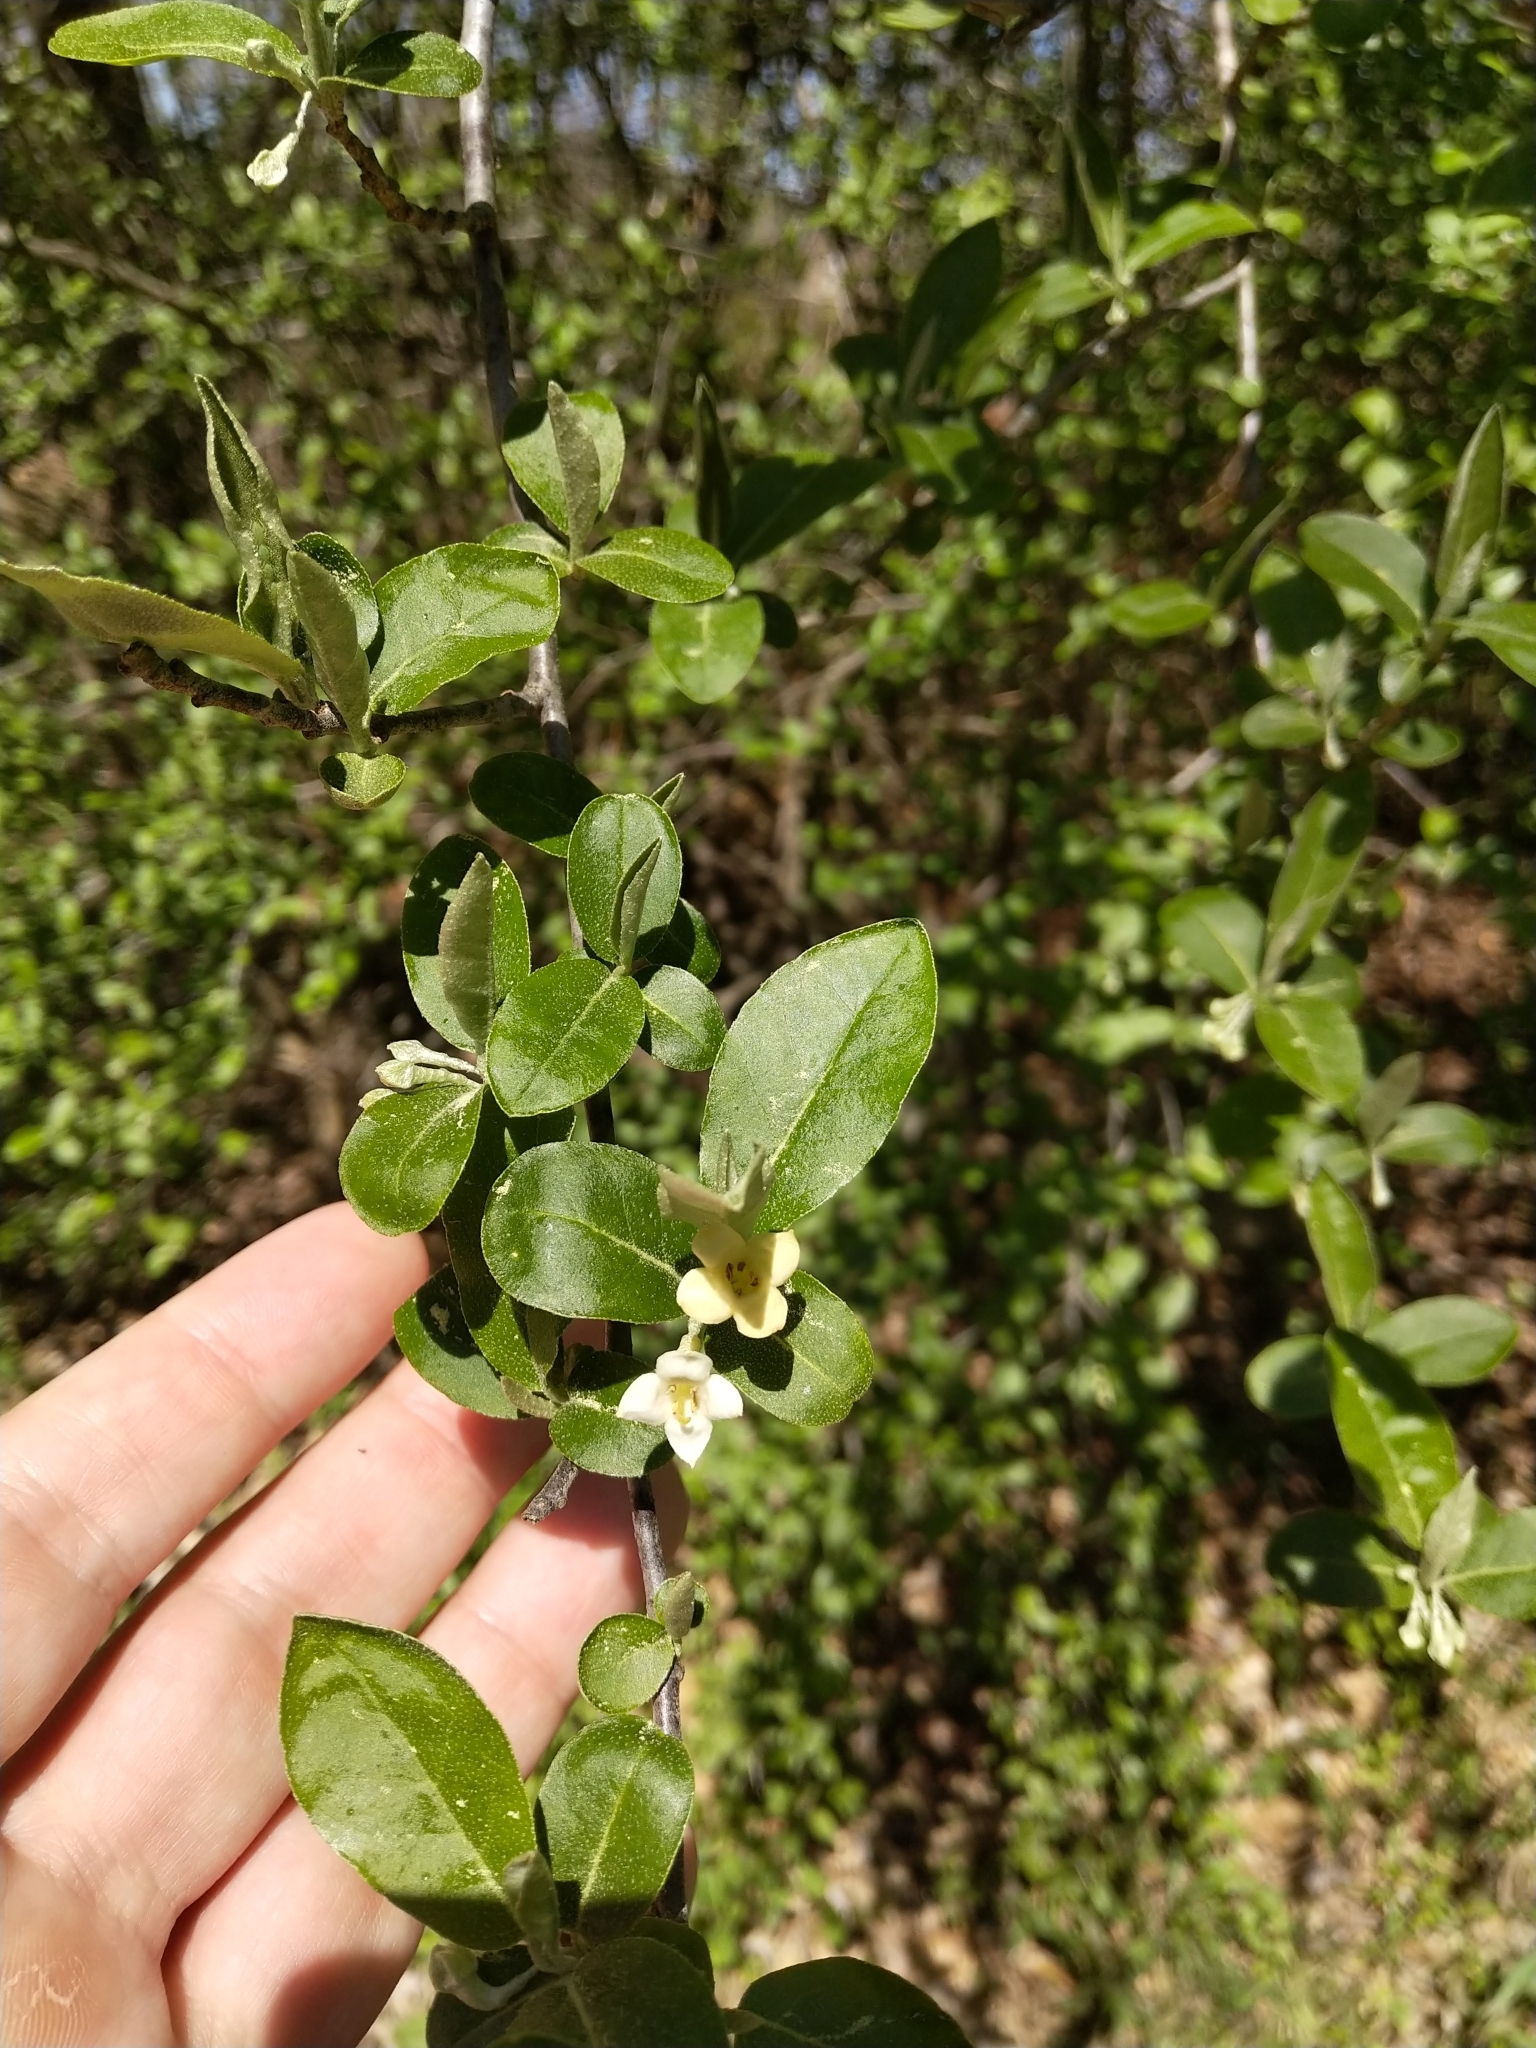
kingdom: Plantae
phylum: Tracheophyta
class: Magnoliopsida
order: Rosales
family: Elaeagnaceae
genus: Elaeagnus
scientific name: Elaeagnus umbellata
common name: Autumn olive
